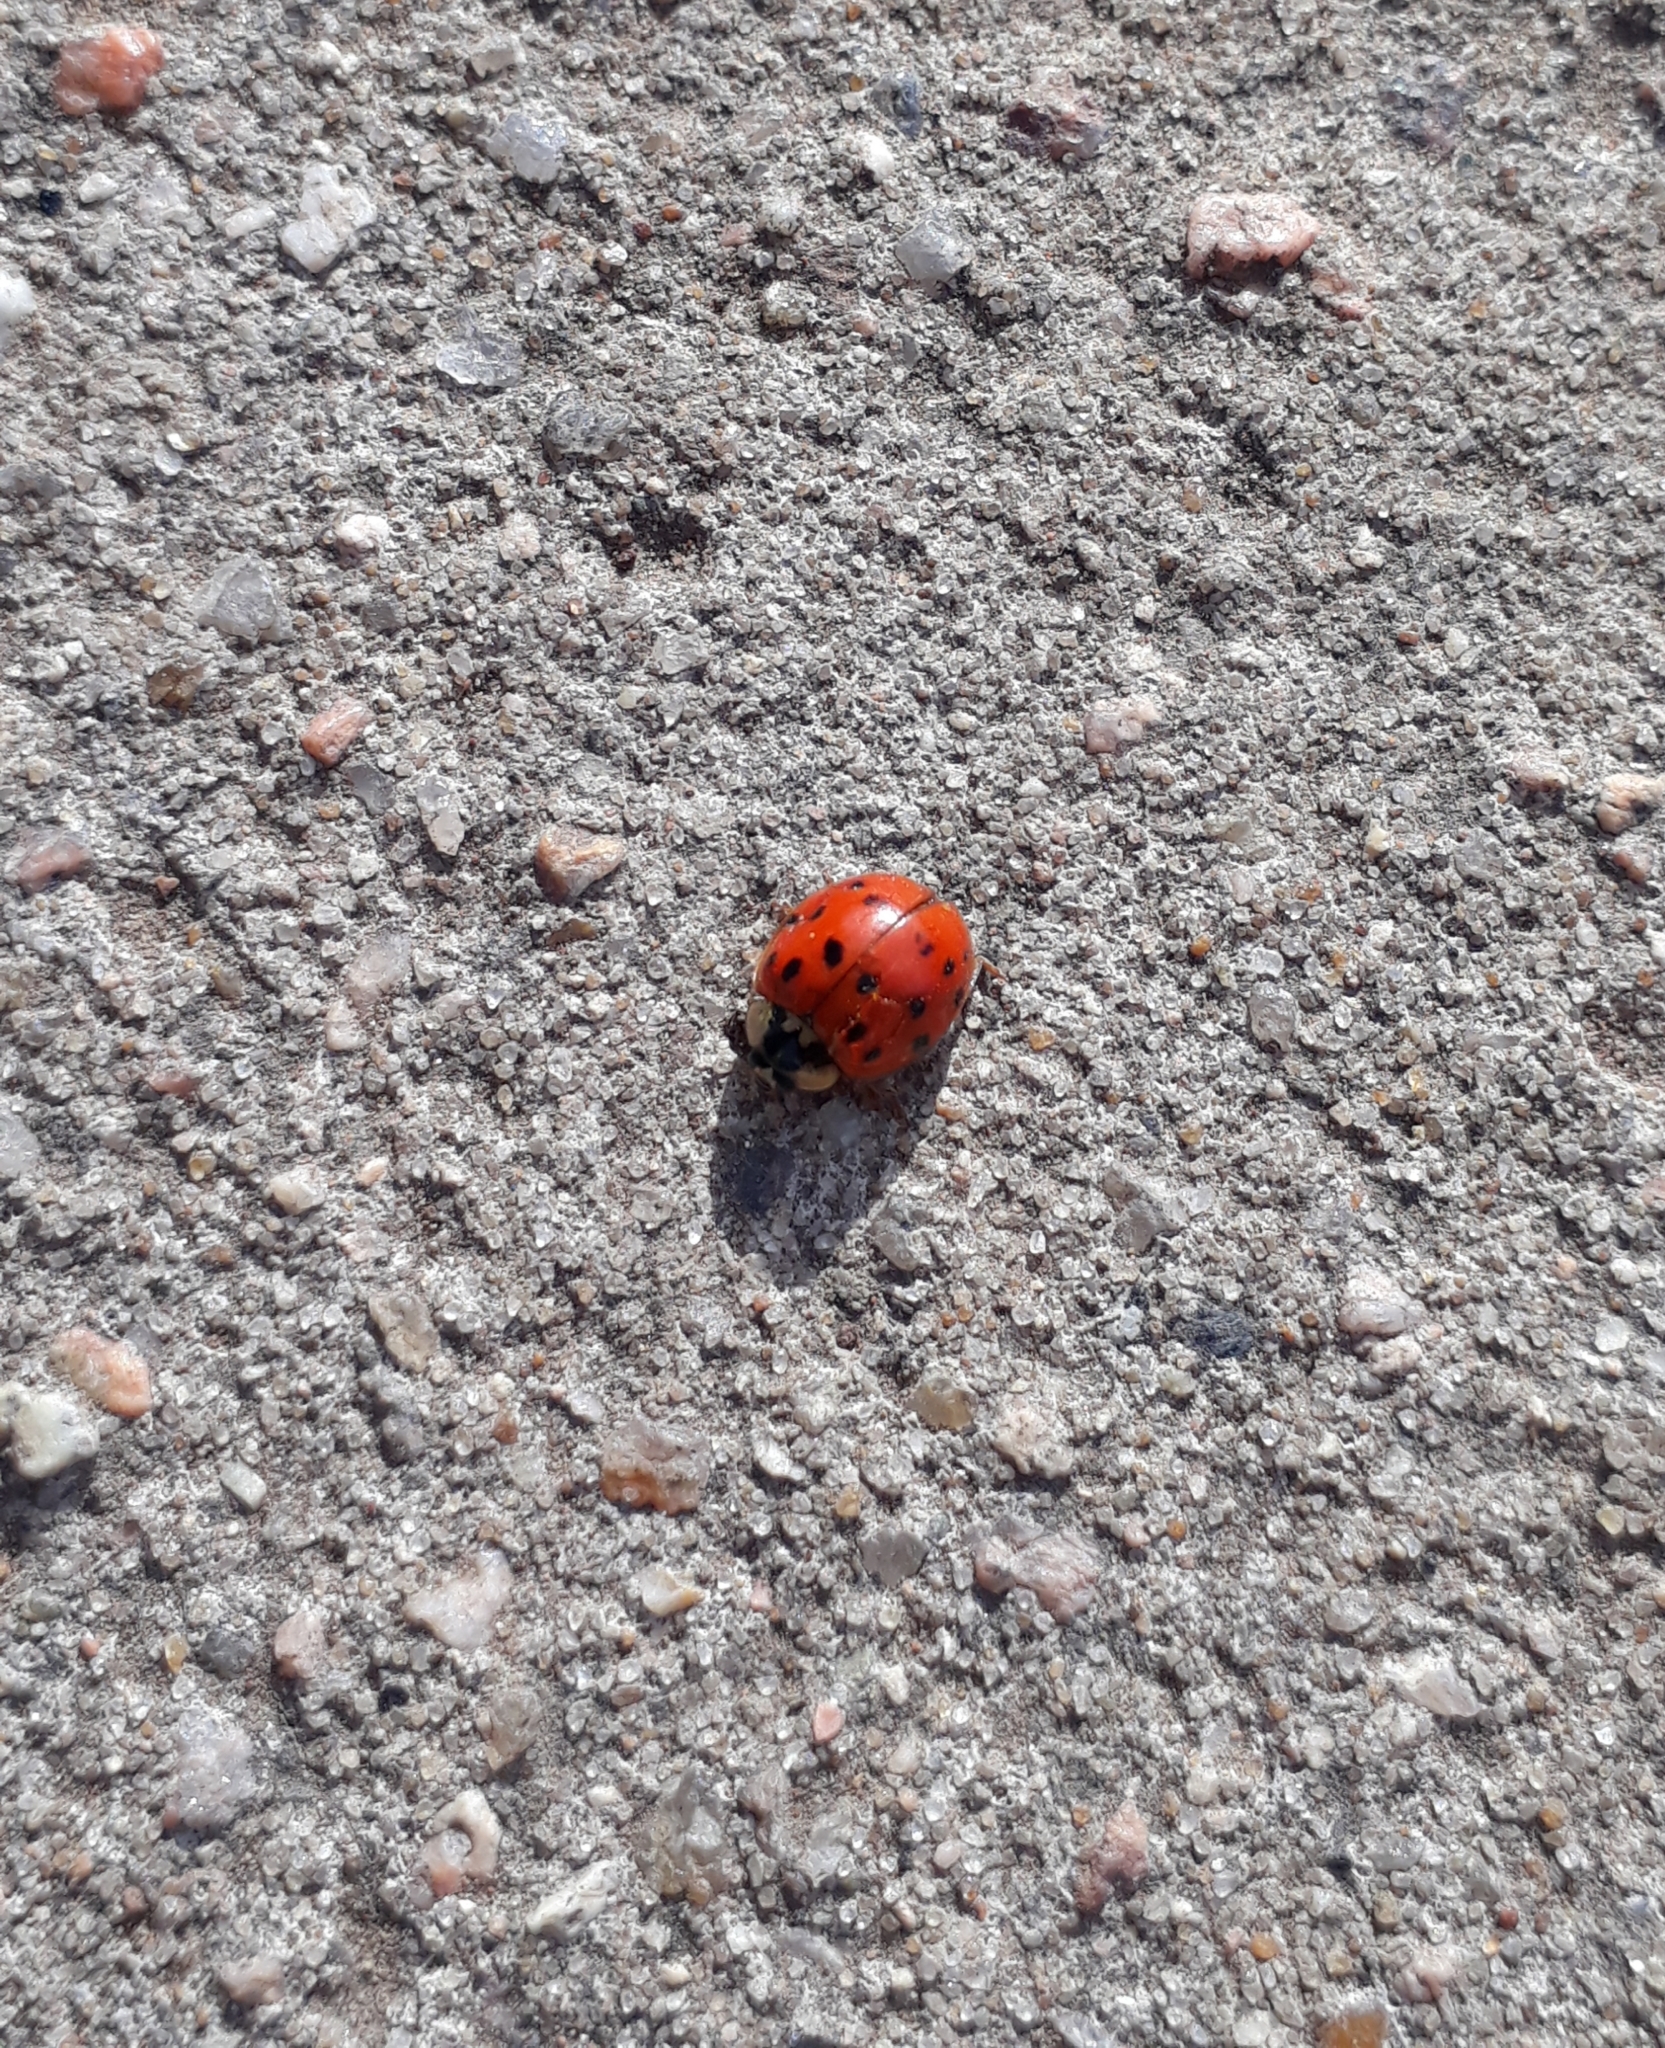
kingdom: Animalia
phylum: Arthropoda
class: Insecta
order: Coleoptera
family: Coccinellidae
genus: Harmonia
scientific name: Harmonia axyridis
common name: Harlequin ladybird
